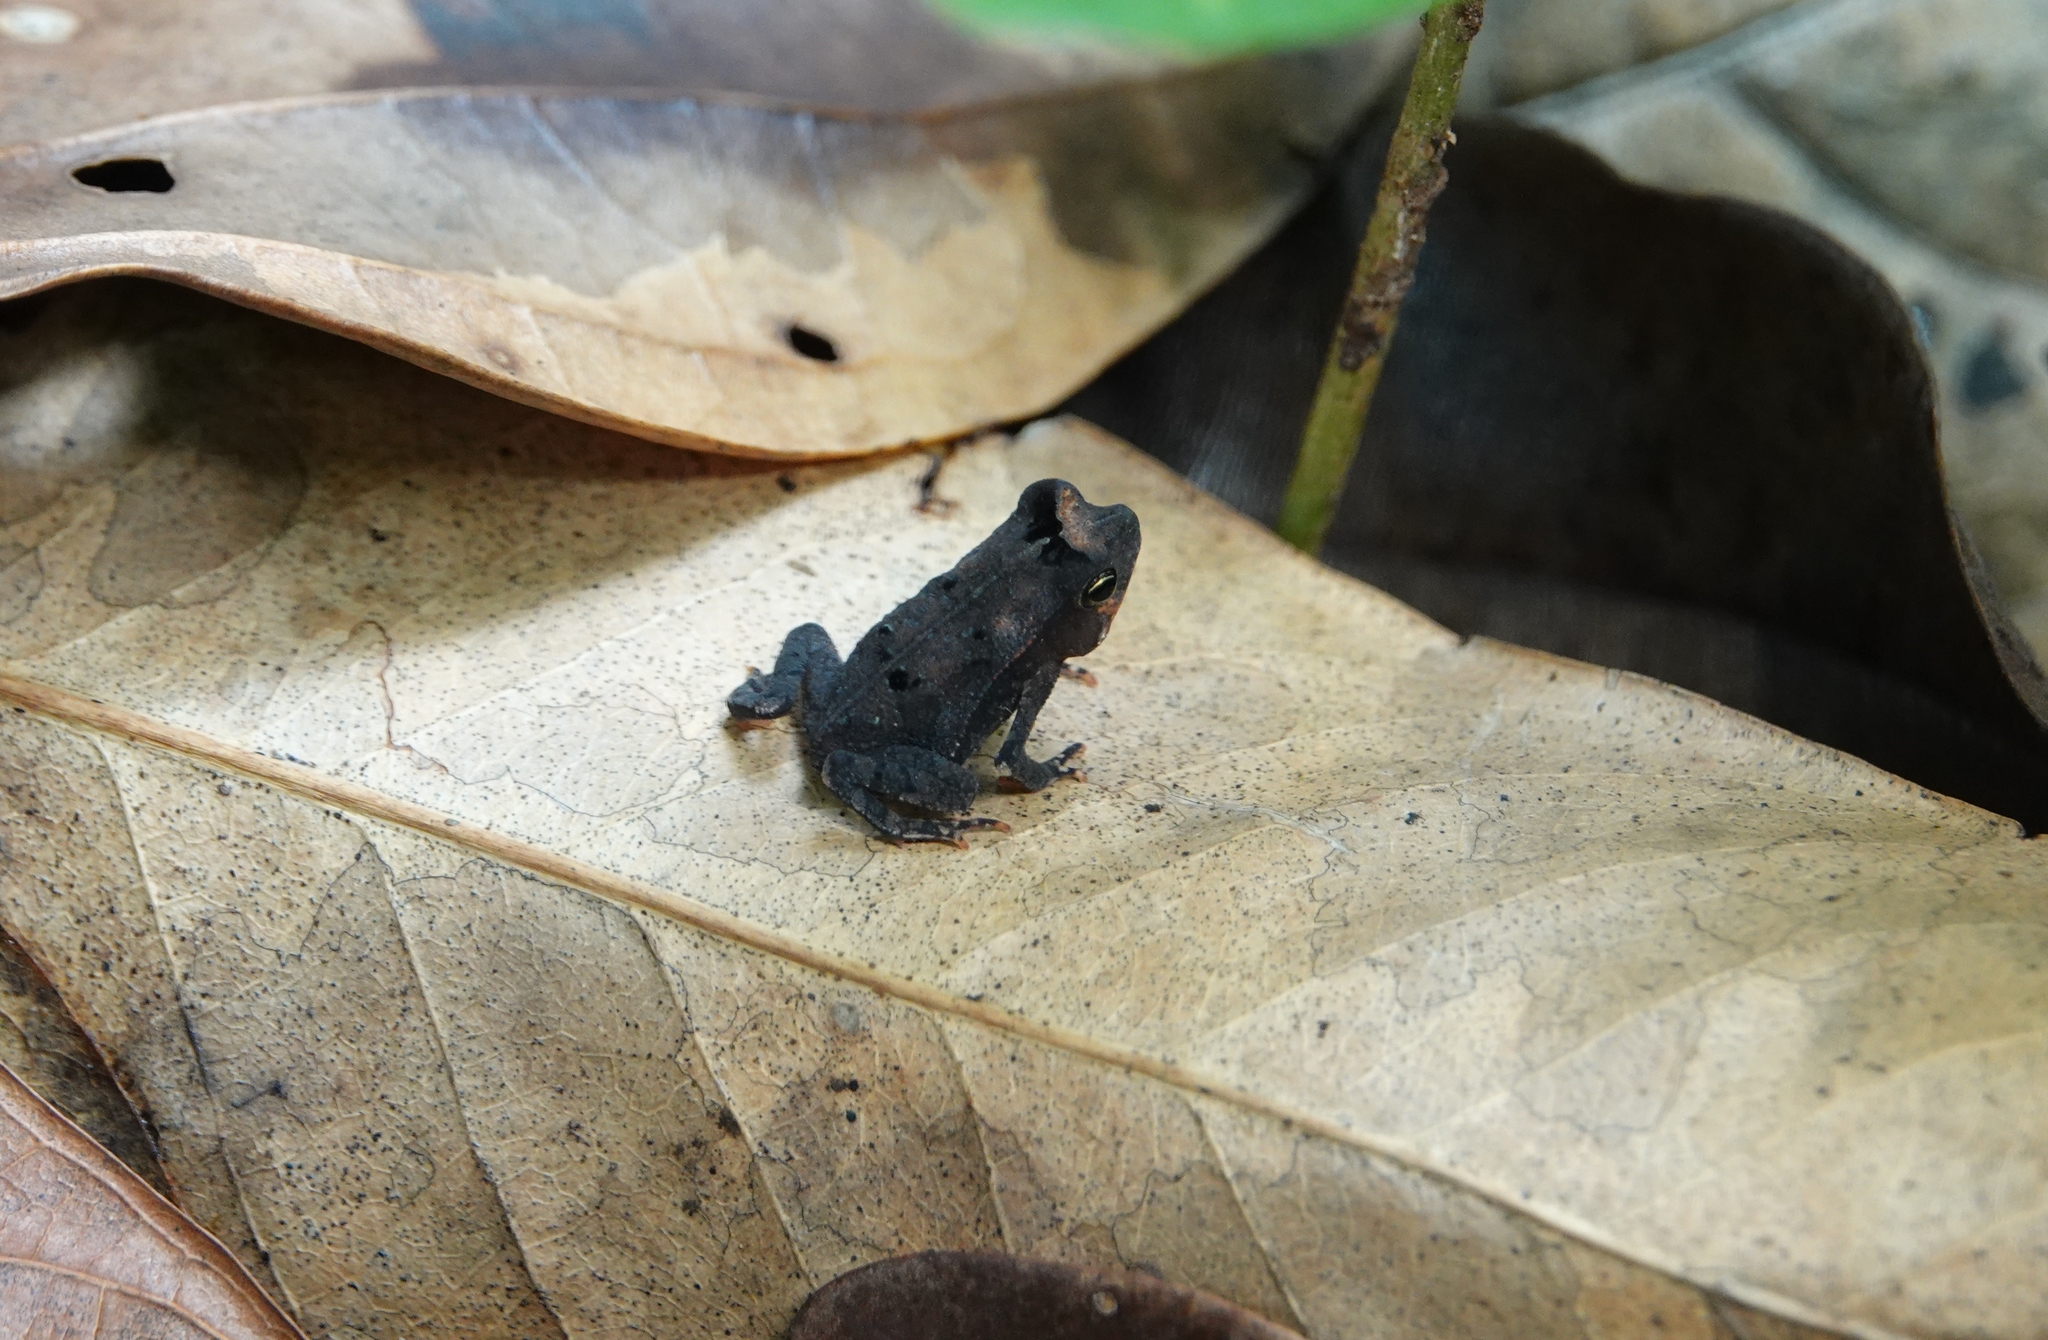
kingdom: Animalia
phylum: Chordata
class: Amphibia
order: Anura
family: Bufonidae
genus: Rhinella
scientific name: Rhinella margaritifera
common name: Mitred toad
